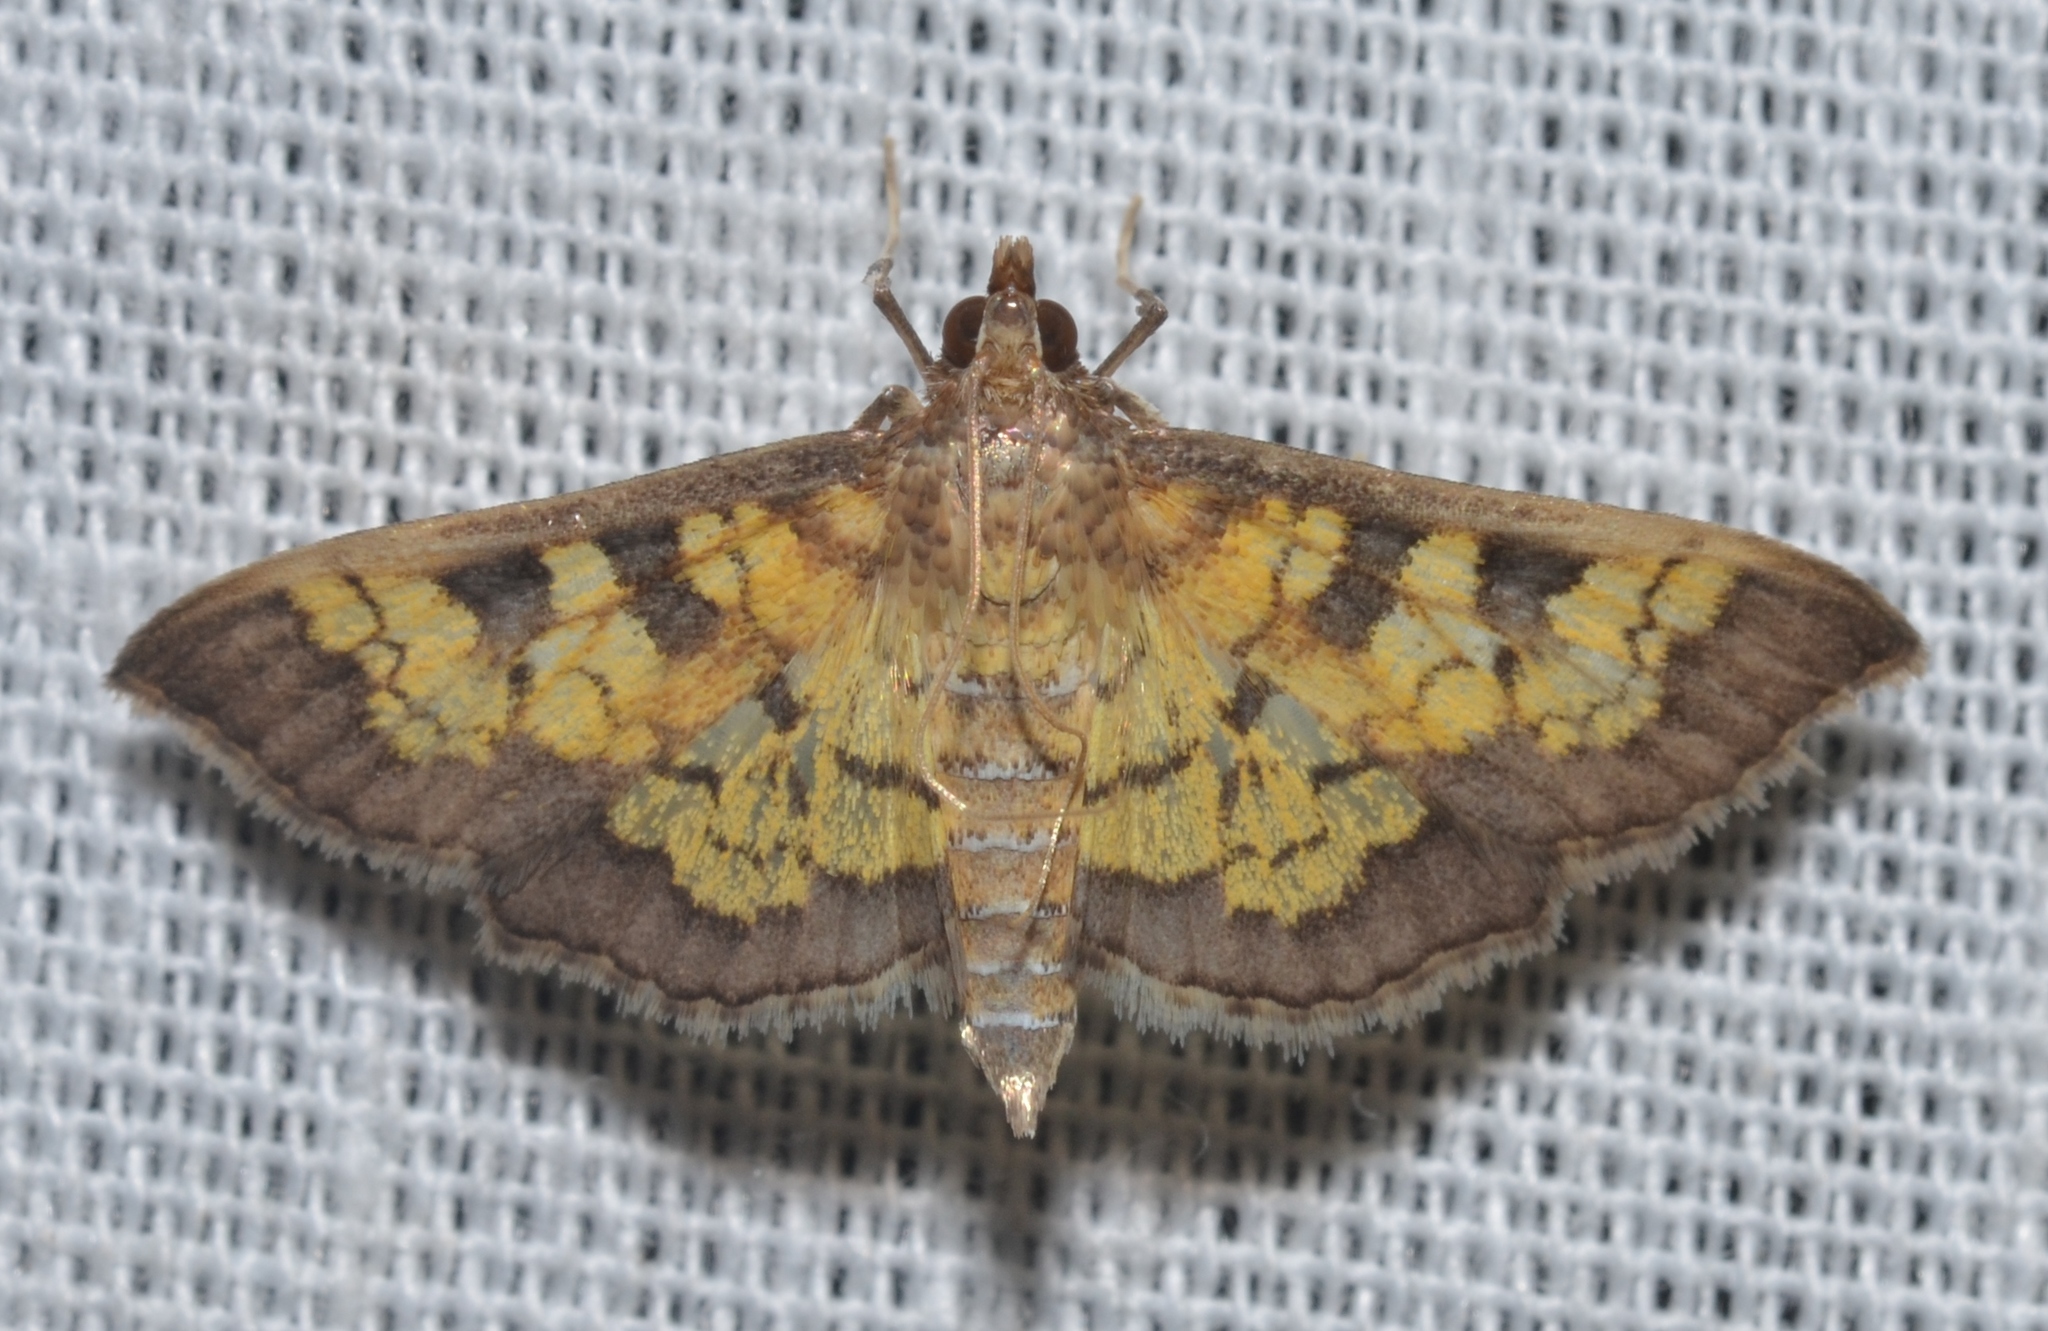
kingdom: Animalia
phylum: Arthropoda
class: Insecta
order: Lepidoptera
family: Crambidae
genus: Epipagis
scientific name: Epipagis adipaloides
